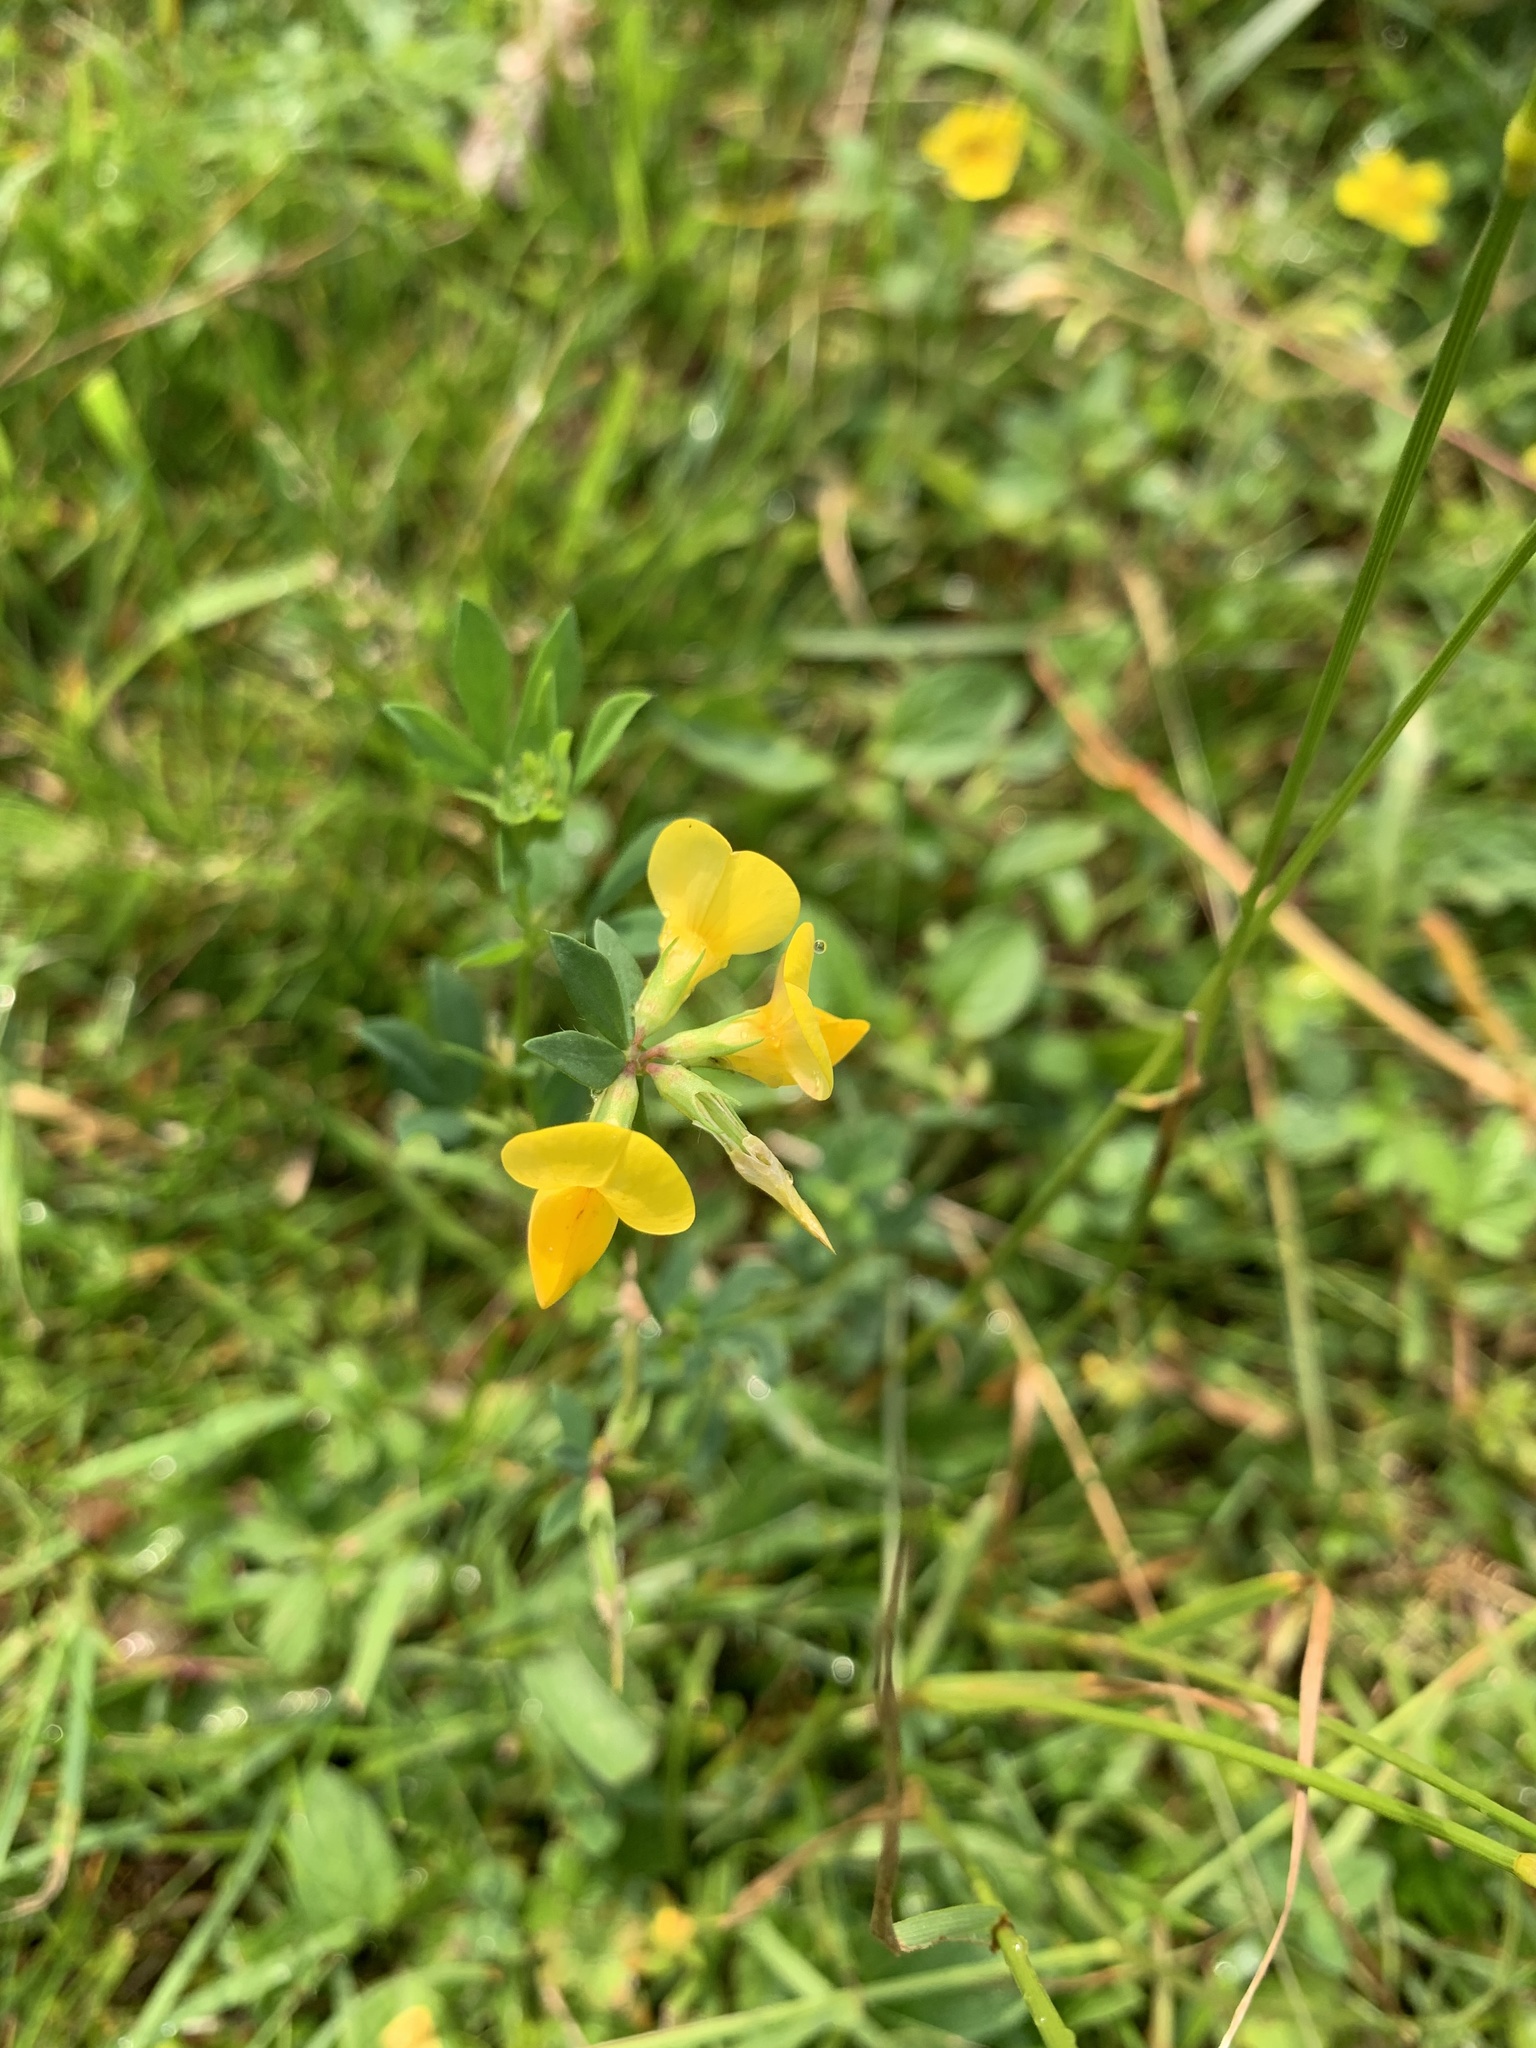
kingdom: Plantae
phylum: Tracheophyta
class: Magnoliopsida
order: Fabales
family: Fabaceae
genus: Lotus
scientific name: Lotus corniculatus
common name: Common bird's-foot-trefoil
